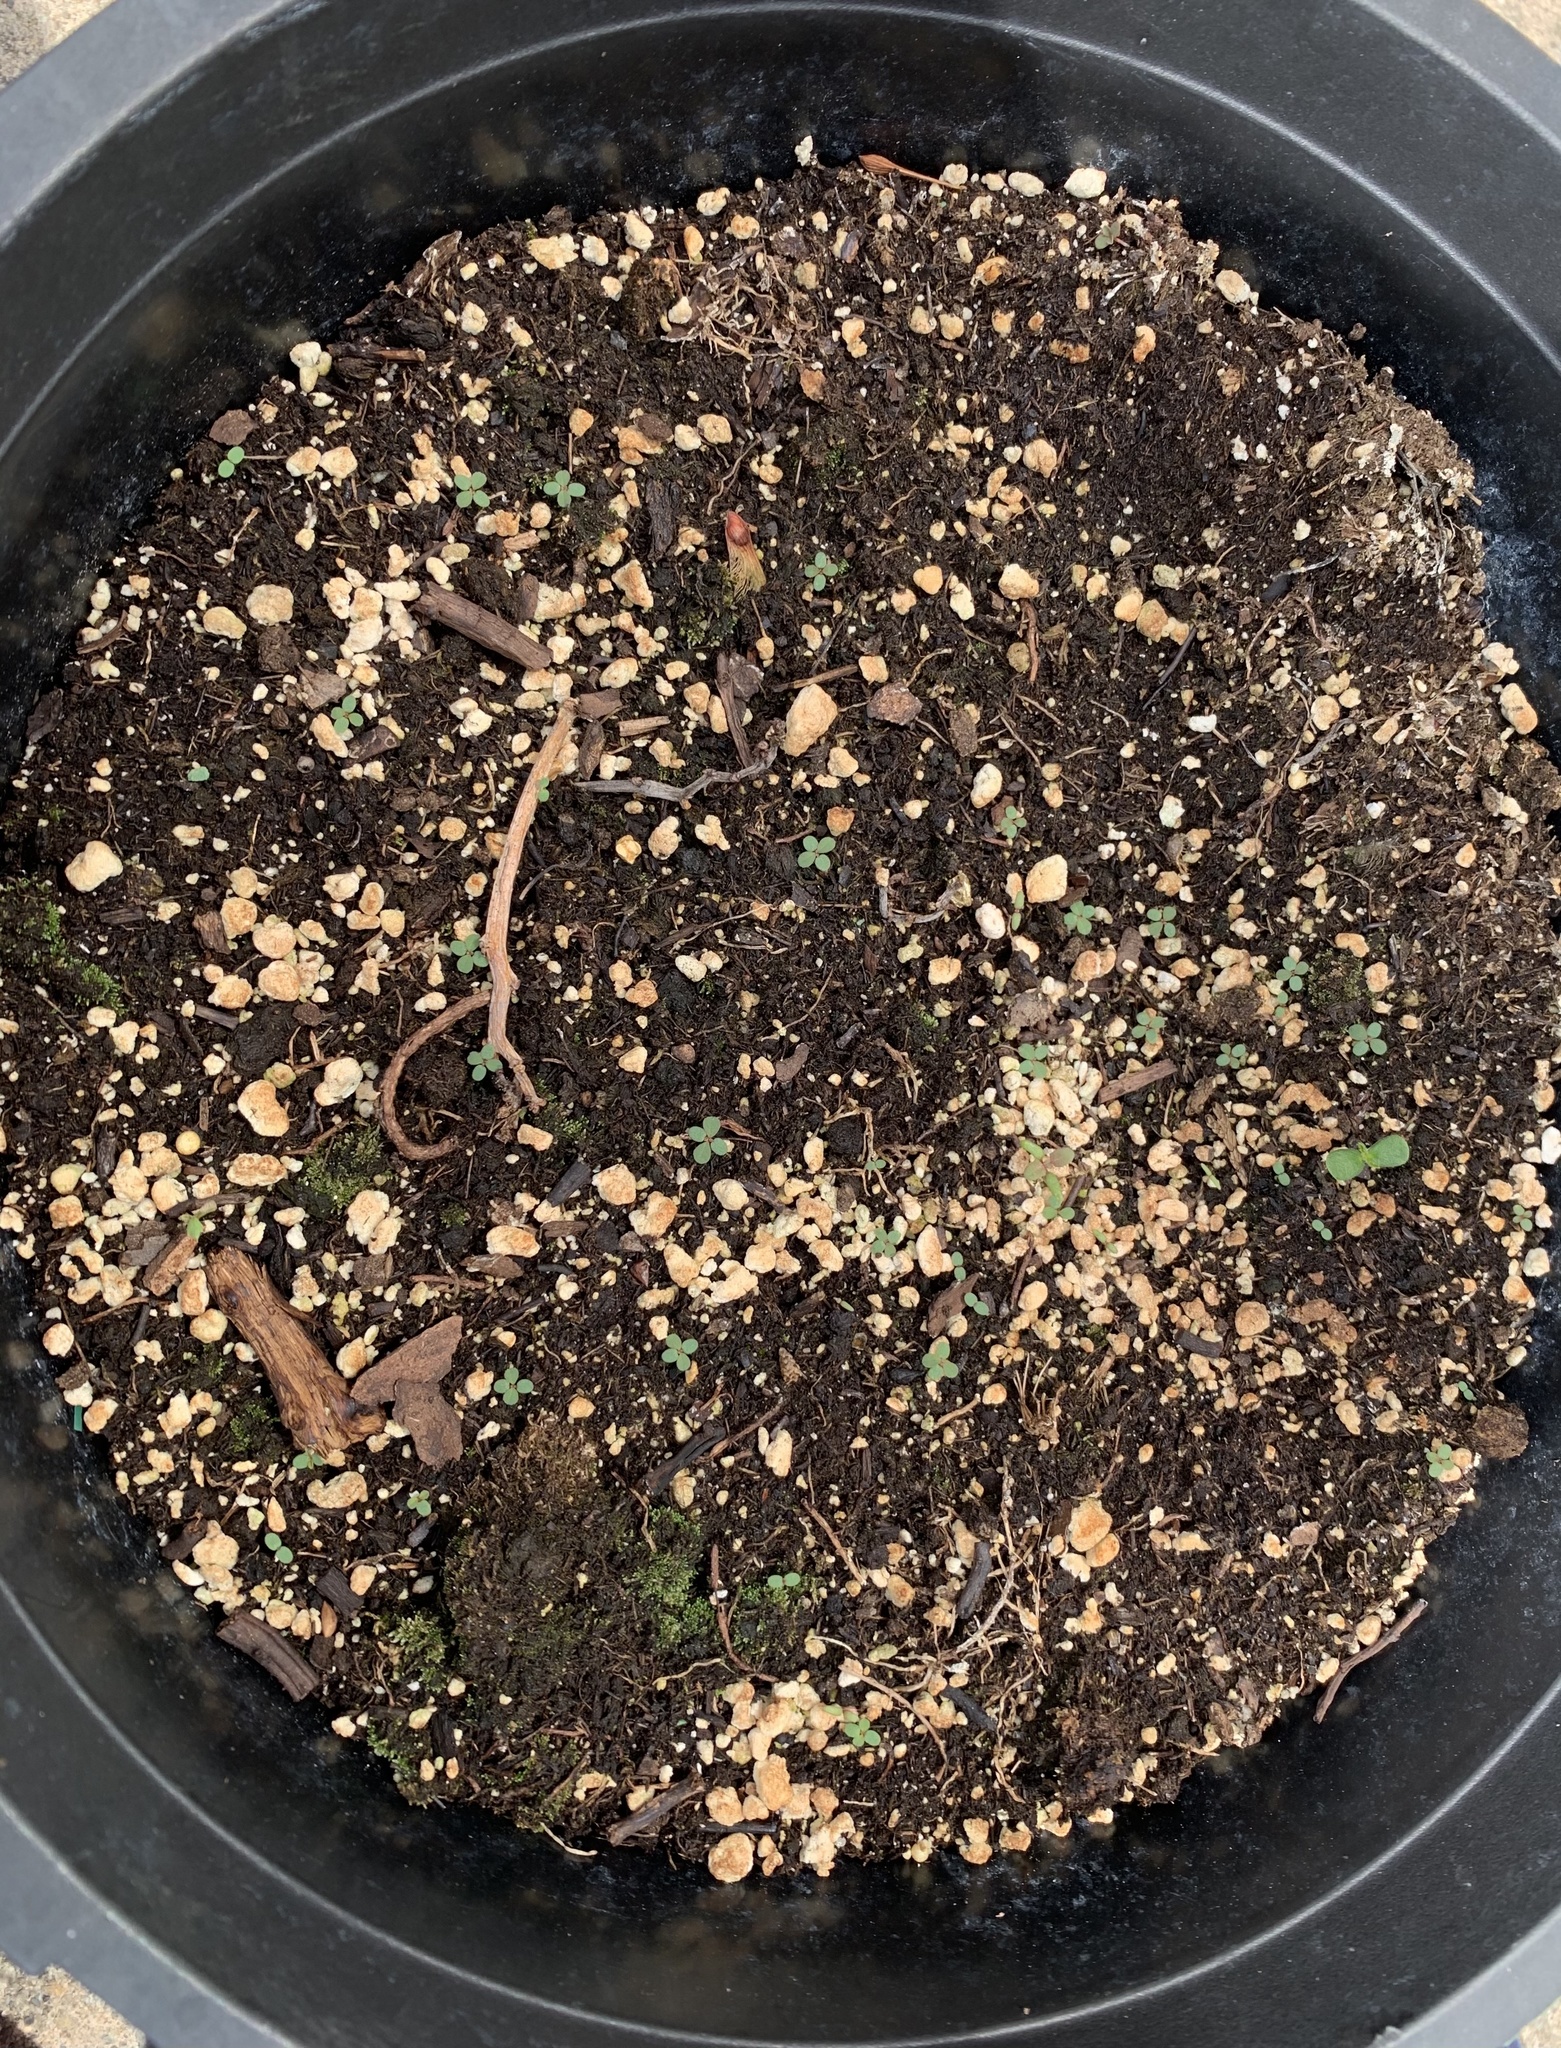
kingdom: Plantae
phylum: Tracheophyta
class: Magnoliopsida
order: Malpighiales
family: Euphorbiaceae
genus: Euphorbia
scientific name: Euphorbia maculata
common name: Spotted spurge
